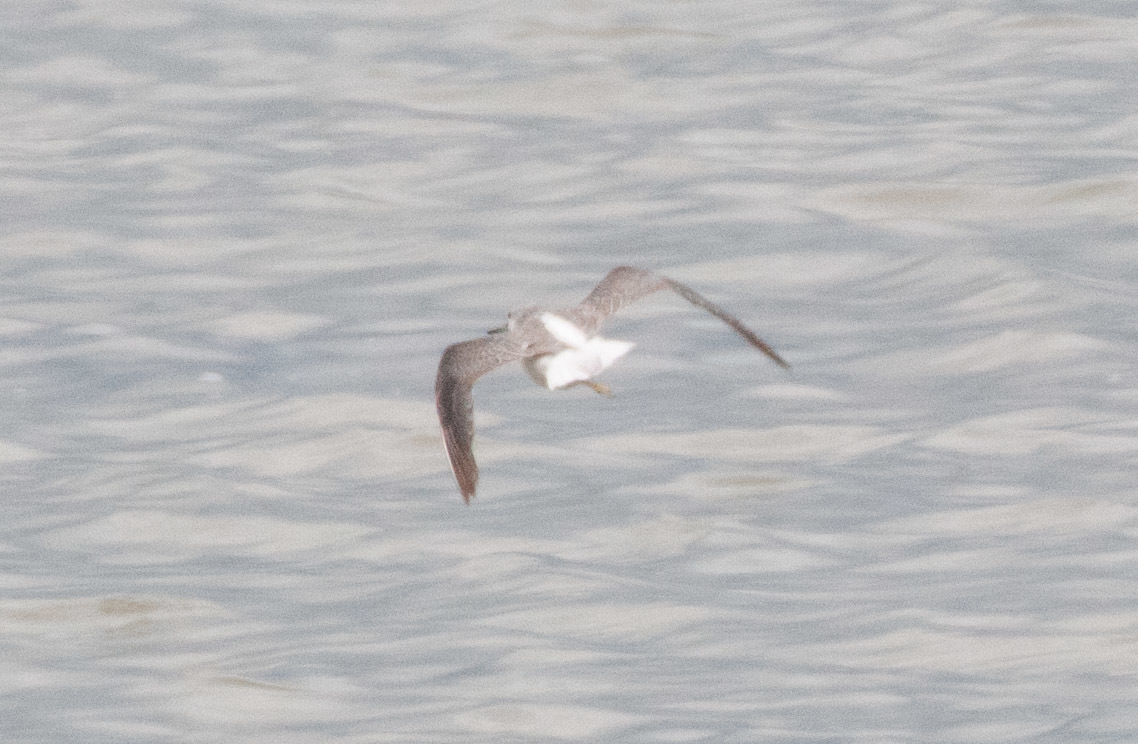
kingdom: Animalia
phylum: Chordata
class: Aves
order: Charadriiformes
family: Scolopacidae
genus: Tringa
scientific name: Tringa nebularia
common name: Common greenshank
